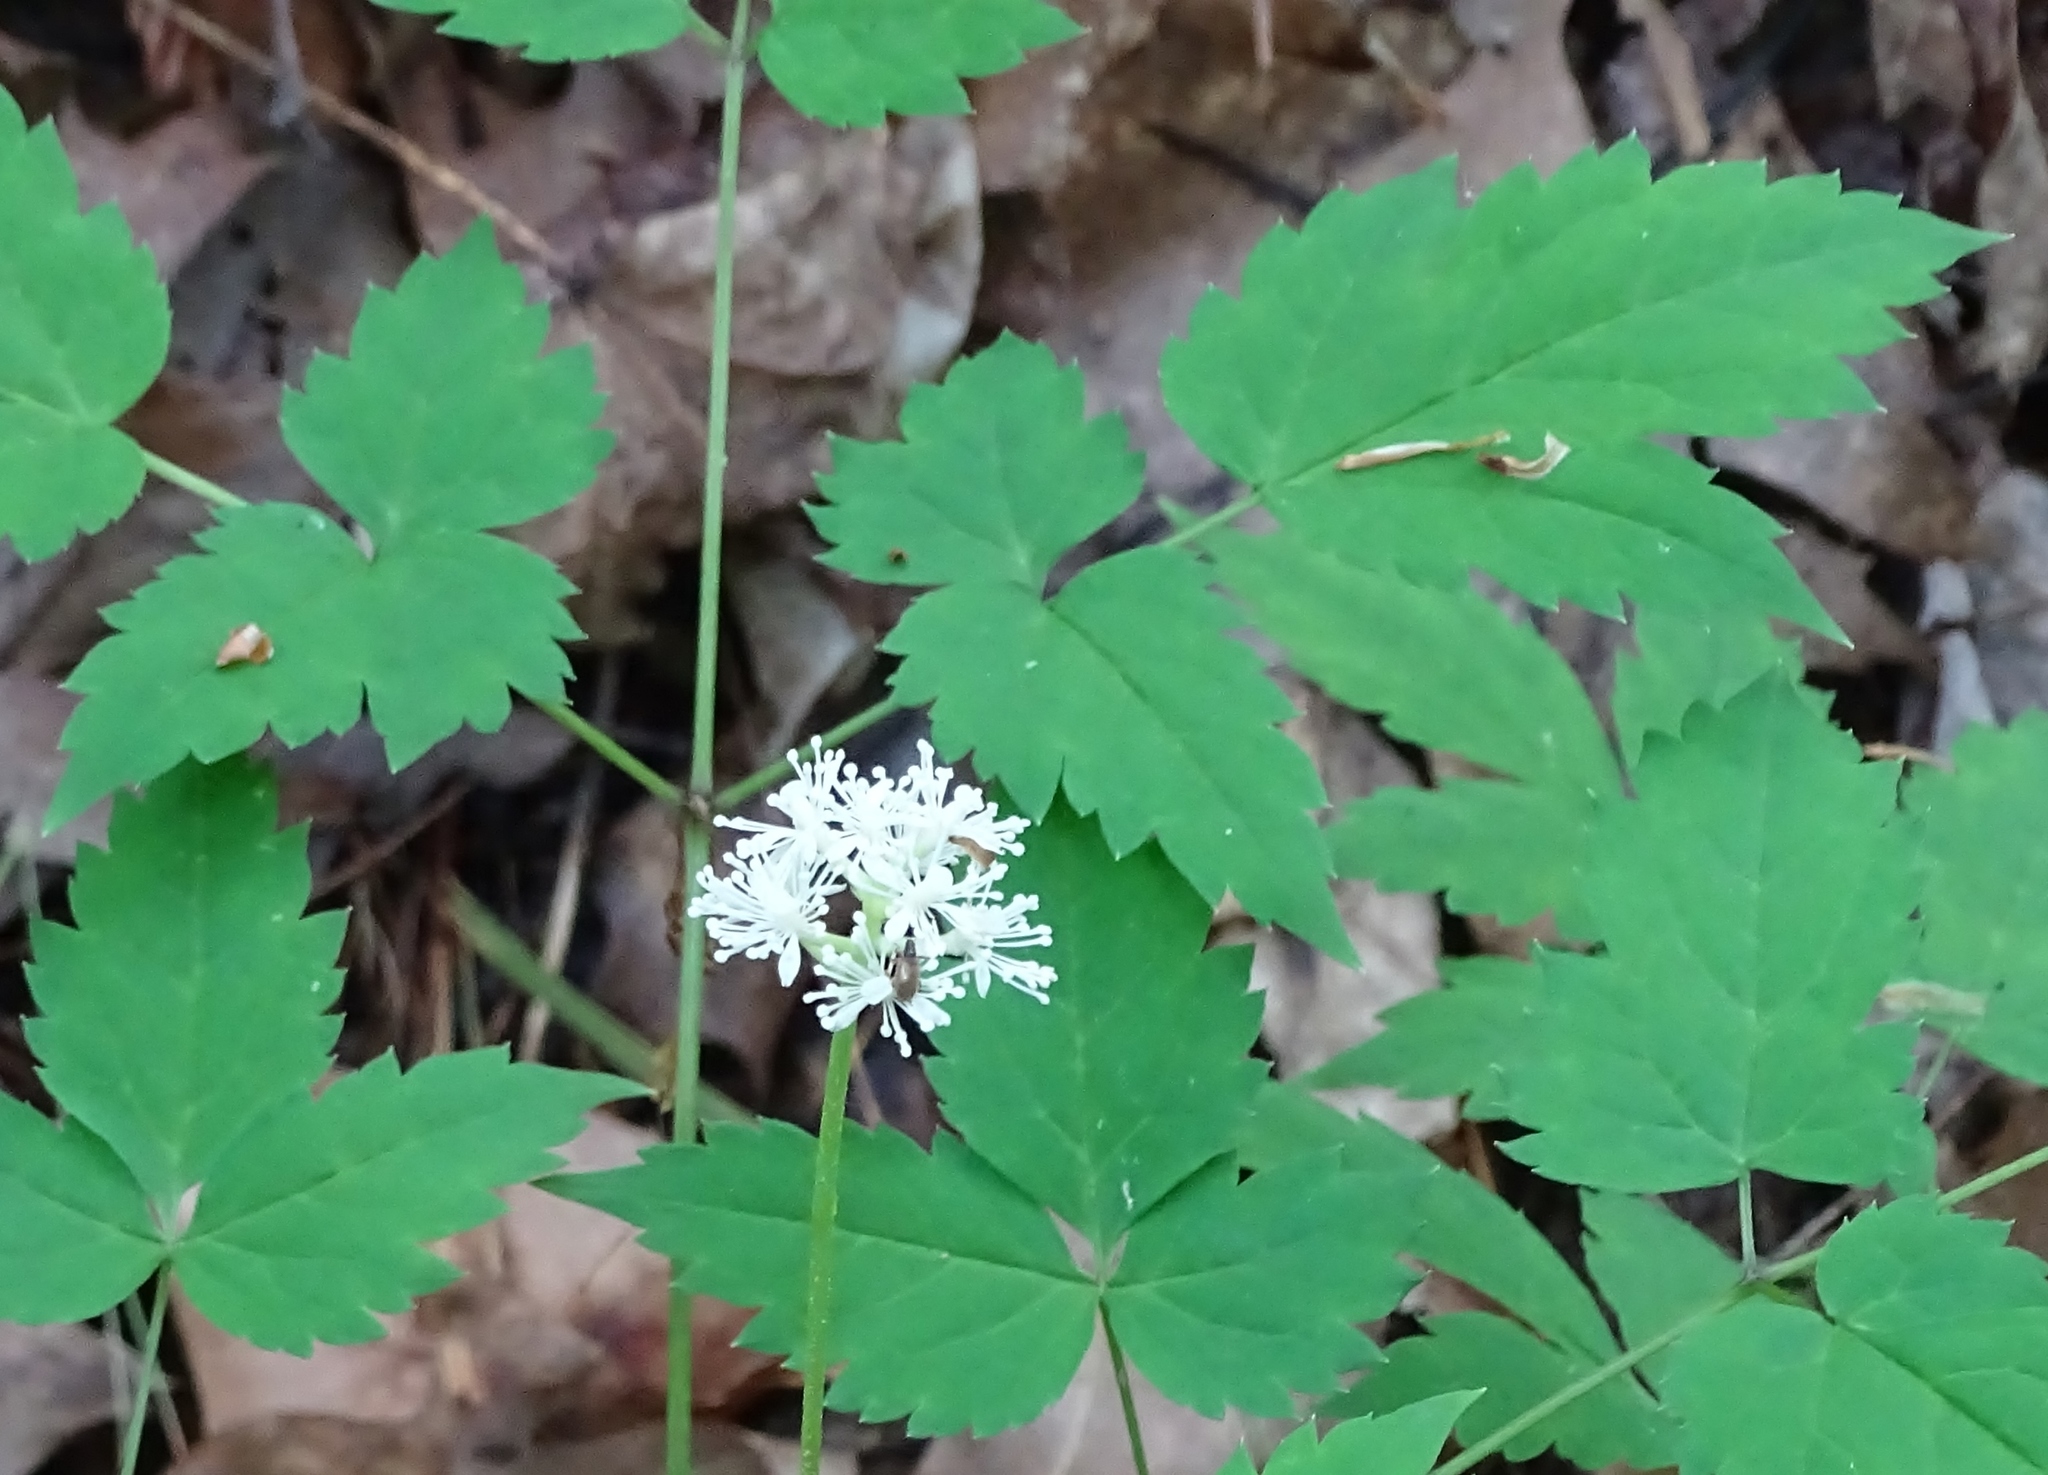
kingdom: Plantae
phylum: Tracheophyta
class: Magnoliopsida
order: Ranunculales
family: Ranunculaceae
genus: Actaea
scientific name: Actaea rubra
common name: Red baneberry
